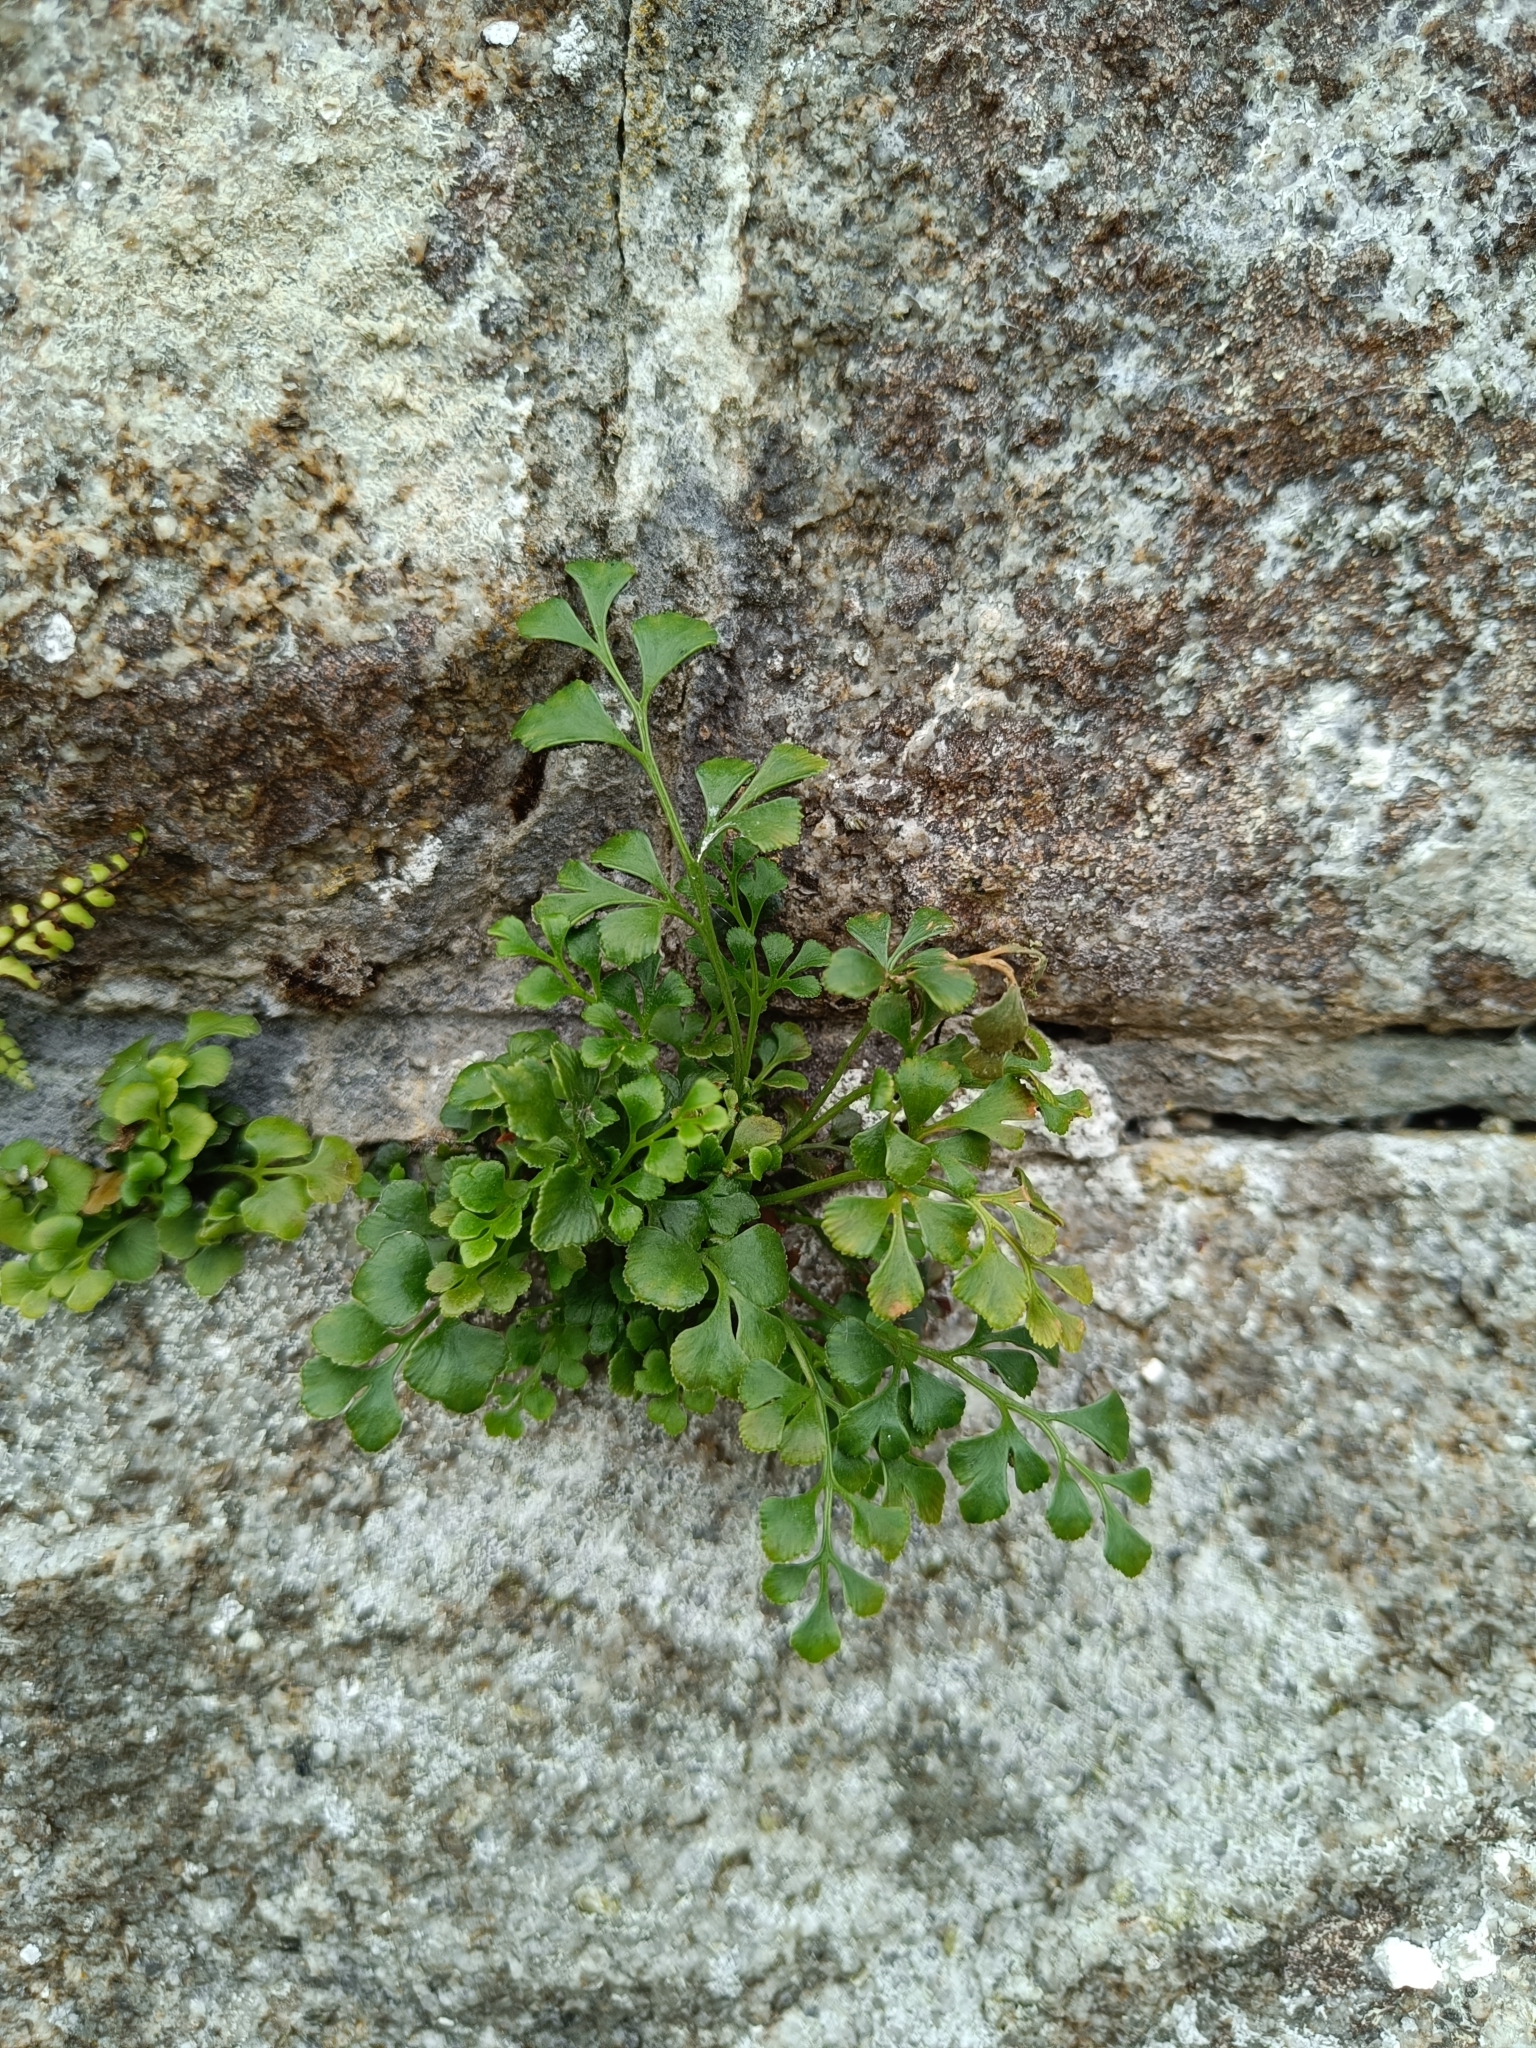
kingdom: Plantae
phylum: Tracheophyta
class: Polypodiopsida
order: Polypodiales
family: Aspleniaceae
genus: Asplenium
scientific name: Asplenium ruta-muraria
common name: Wall-rue
